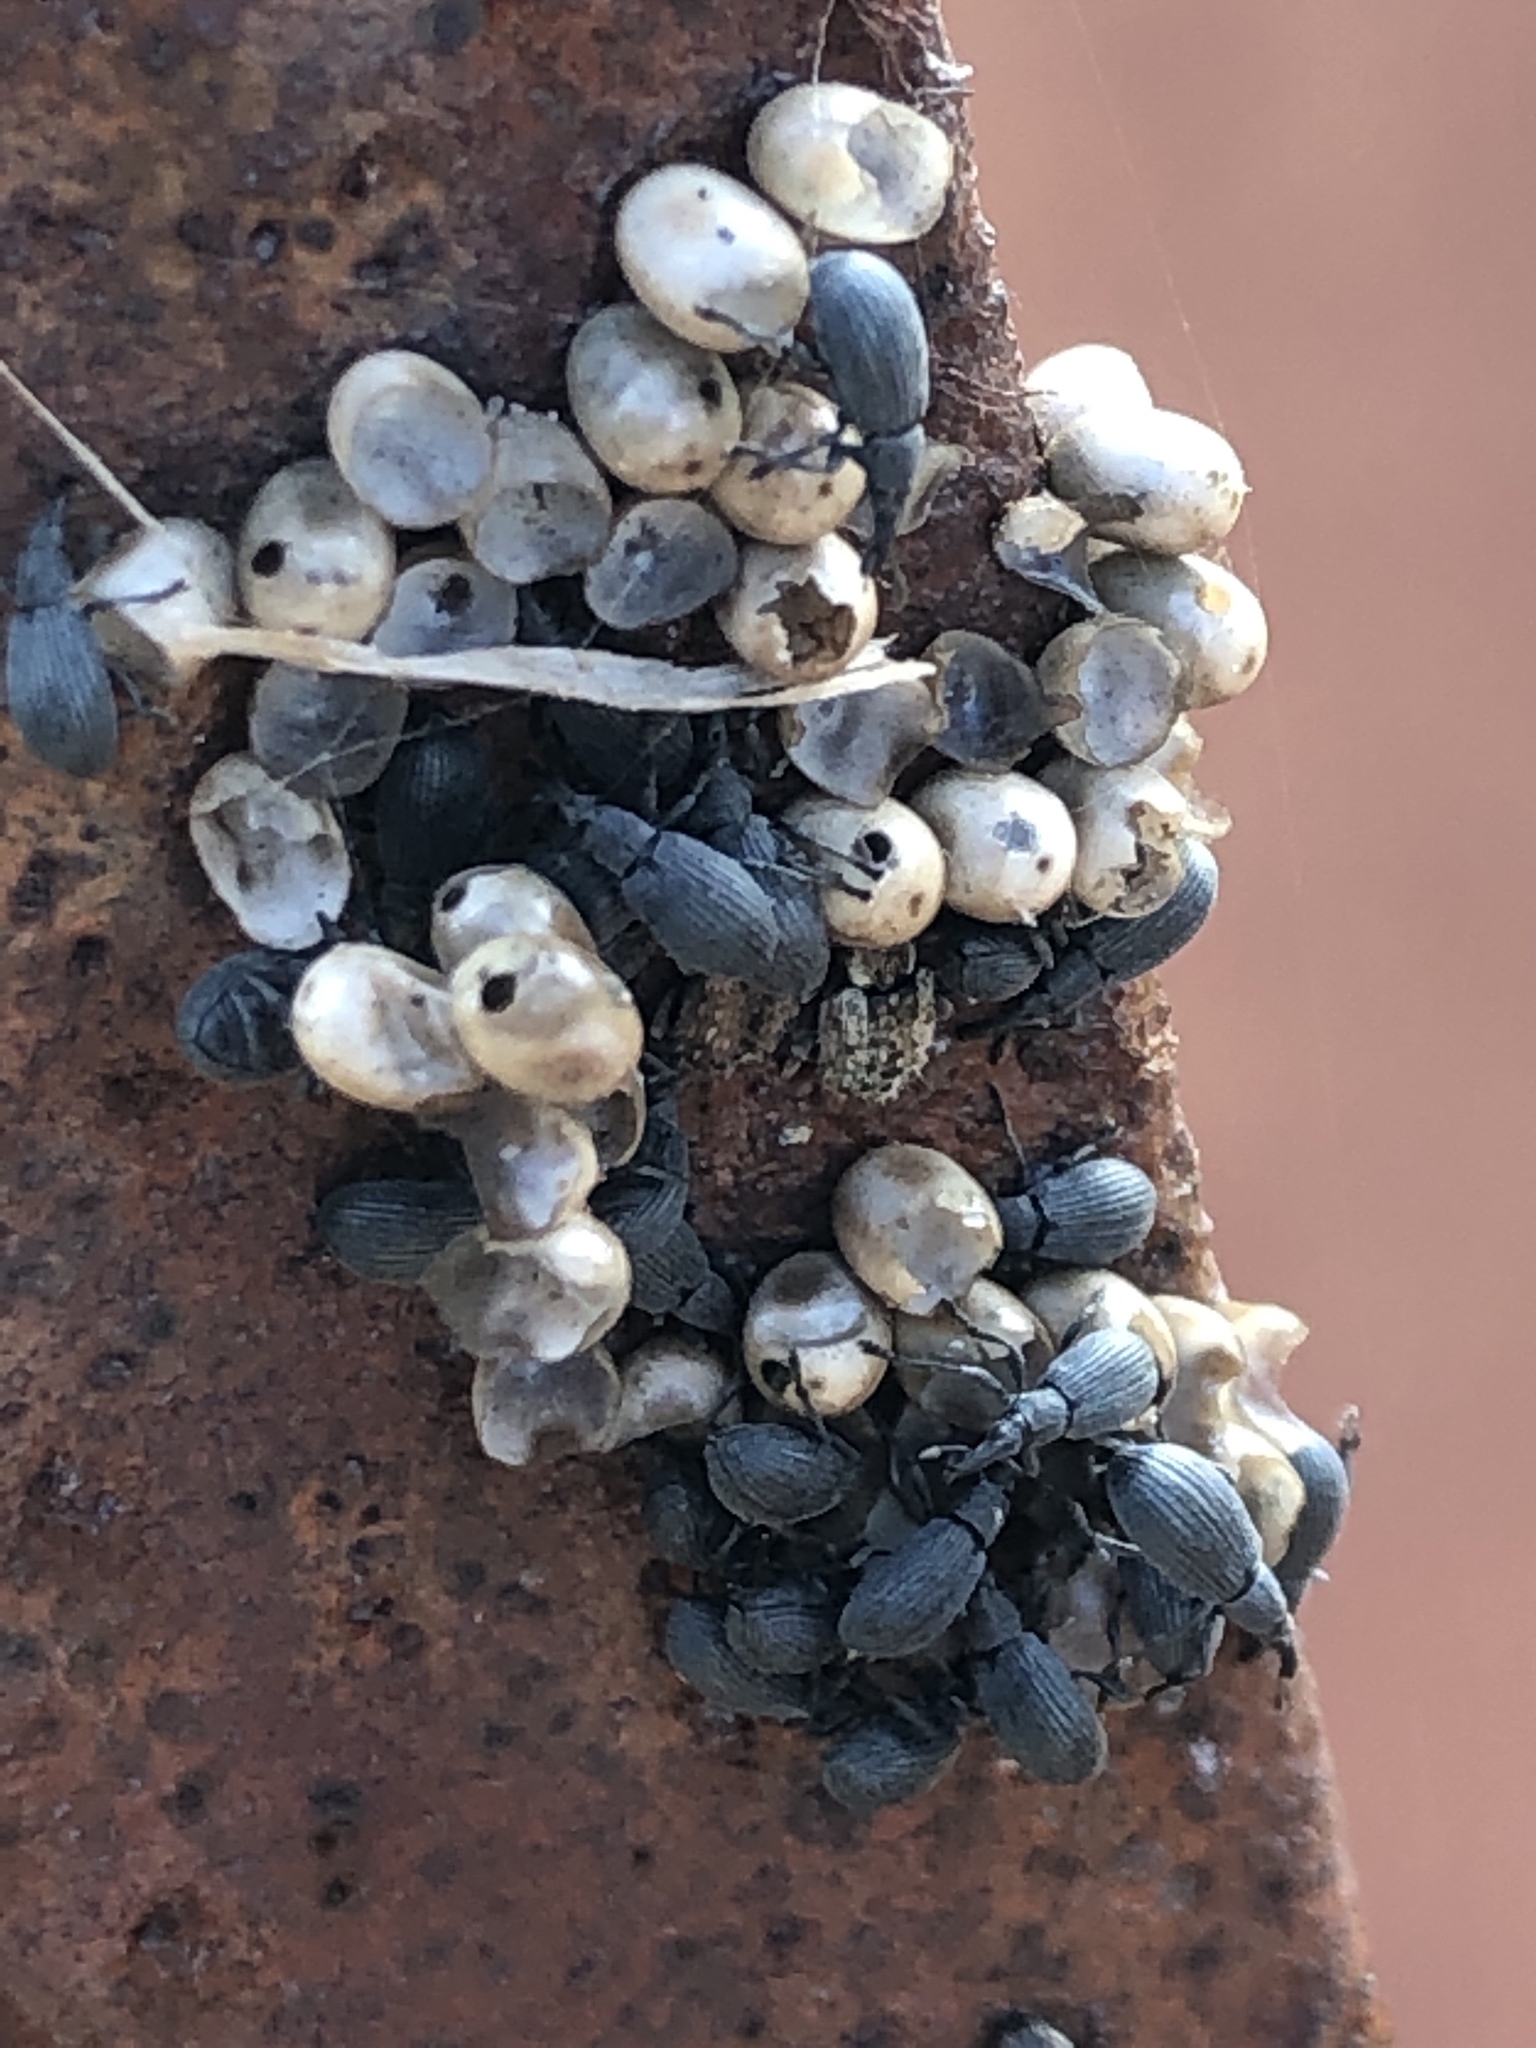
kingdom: Animalia
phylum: Arthropoda
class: Insecta
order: Coleoptera
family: Curculionidae
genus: Limobius
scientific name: Limobius borealis
